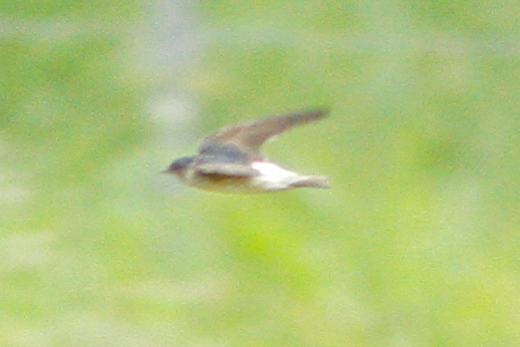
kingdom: Animalia
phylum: Chordata
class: Aves
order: Passeriformes
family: Hirundinidae
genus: Petrochelidon
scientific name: Petrochelidon nigricans
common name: Tree martin
